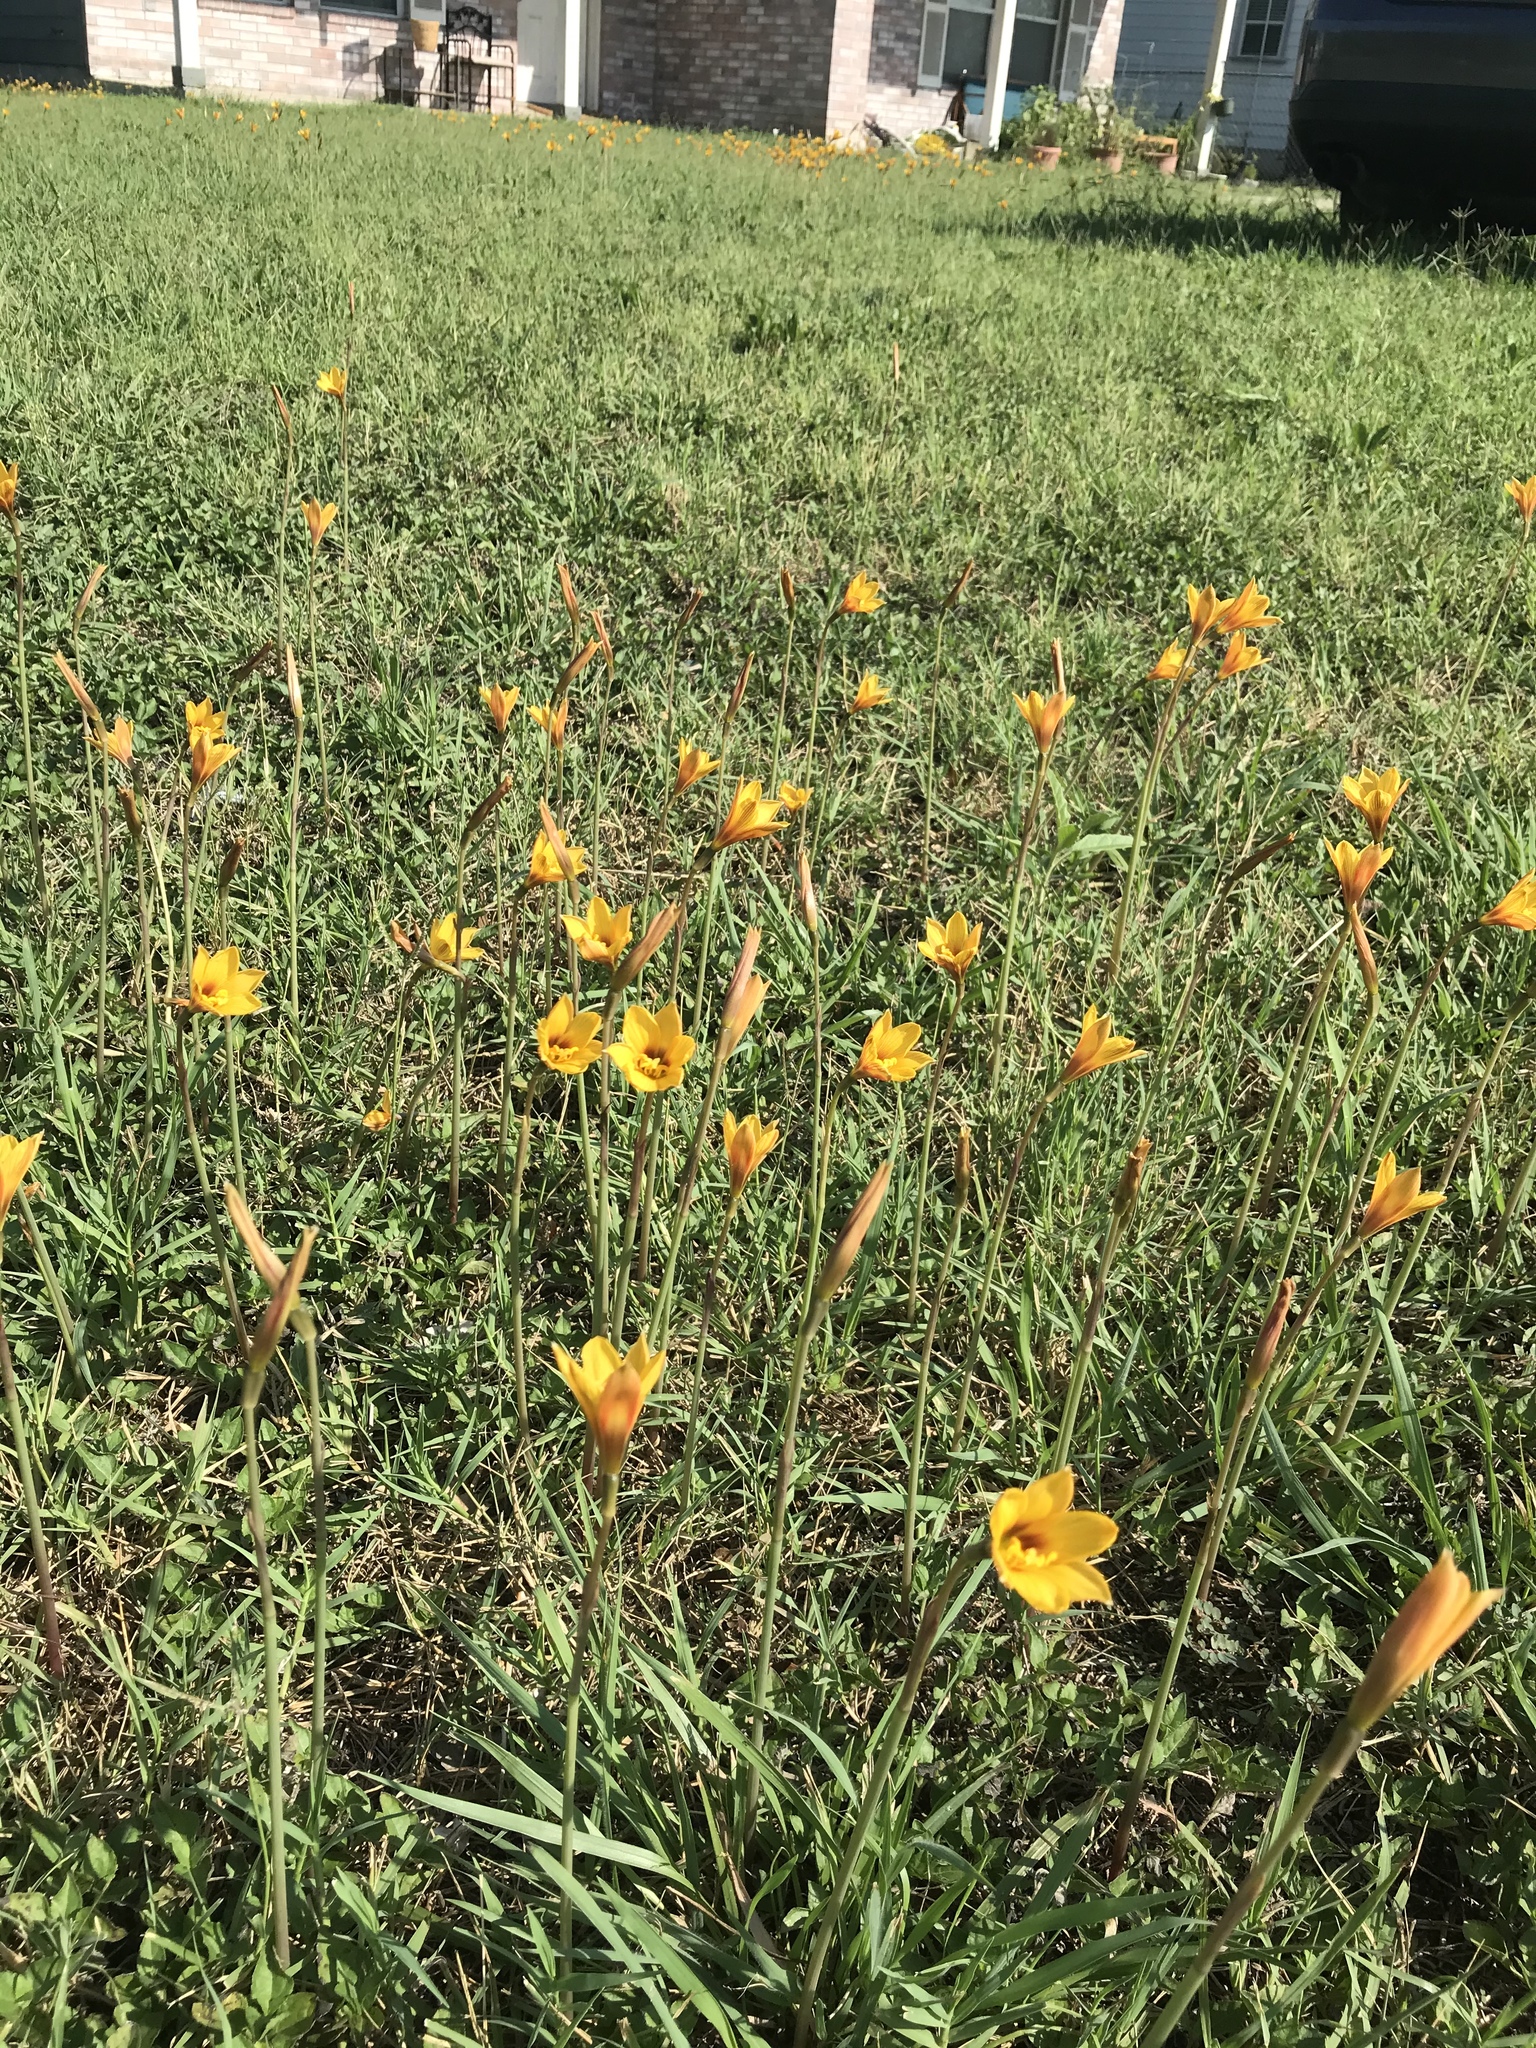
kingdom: Plantae
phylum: Tracheophyta
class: Liliopsida
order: Asparagales
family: Amaryllidaceae
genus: Zephyranthes
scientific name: Zephyranthes tubispatha
